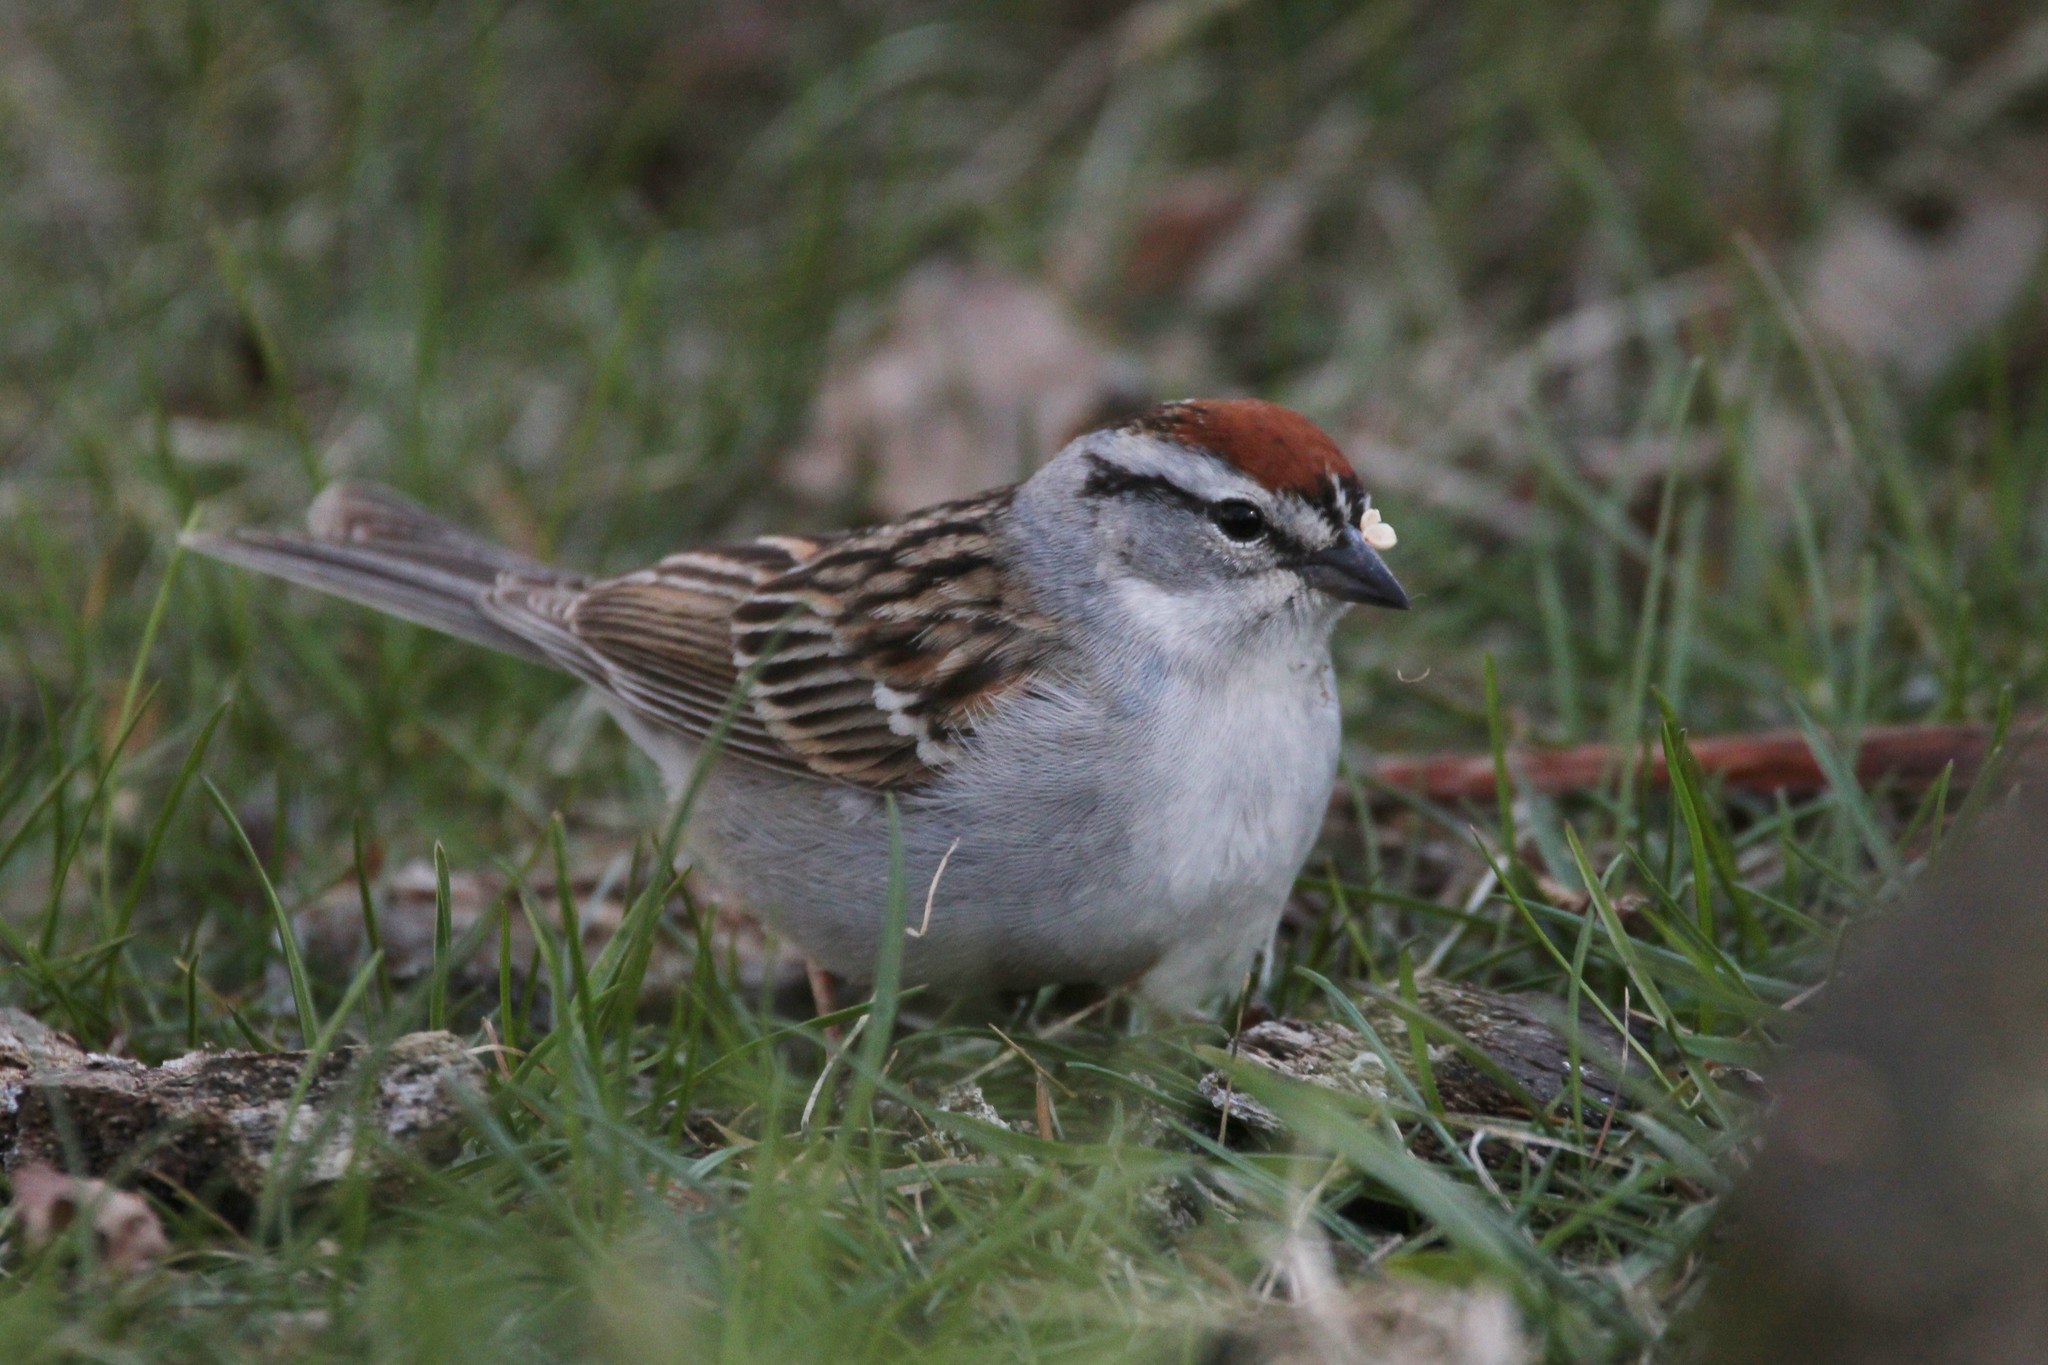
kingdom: Animalia
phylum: Chordata
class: Aves
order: Passeriformes
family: Passerellidae
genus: Spizella
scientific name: Spizella passerina
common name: Chipping sparrow
